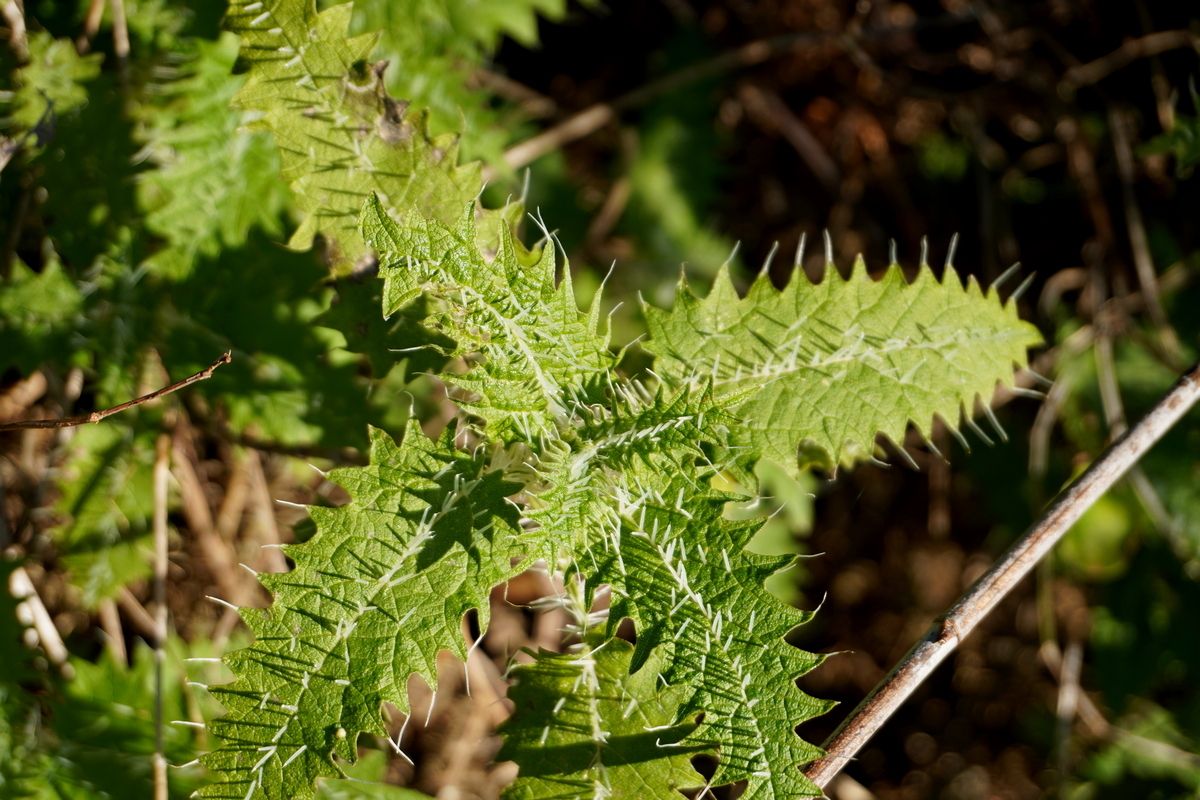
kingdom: Plantae
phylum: Tracheophyta
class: Magnoliopsida
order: Rosales
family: Urticaceae
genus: Urtica
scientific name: Urtica ferox
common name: Tree nettle
